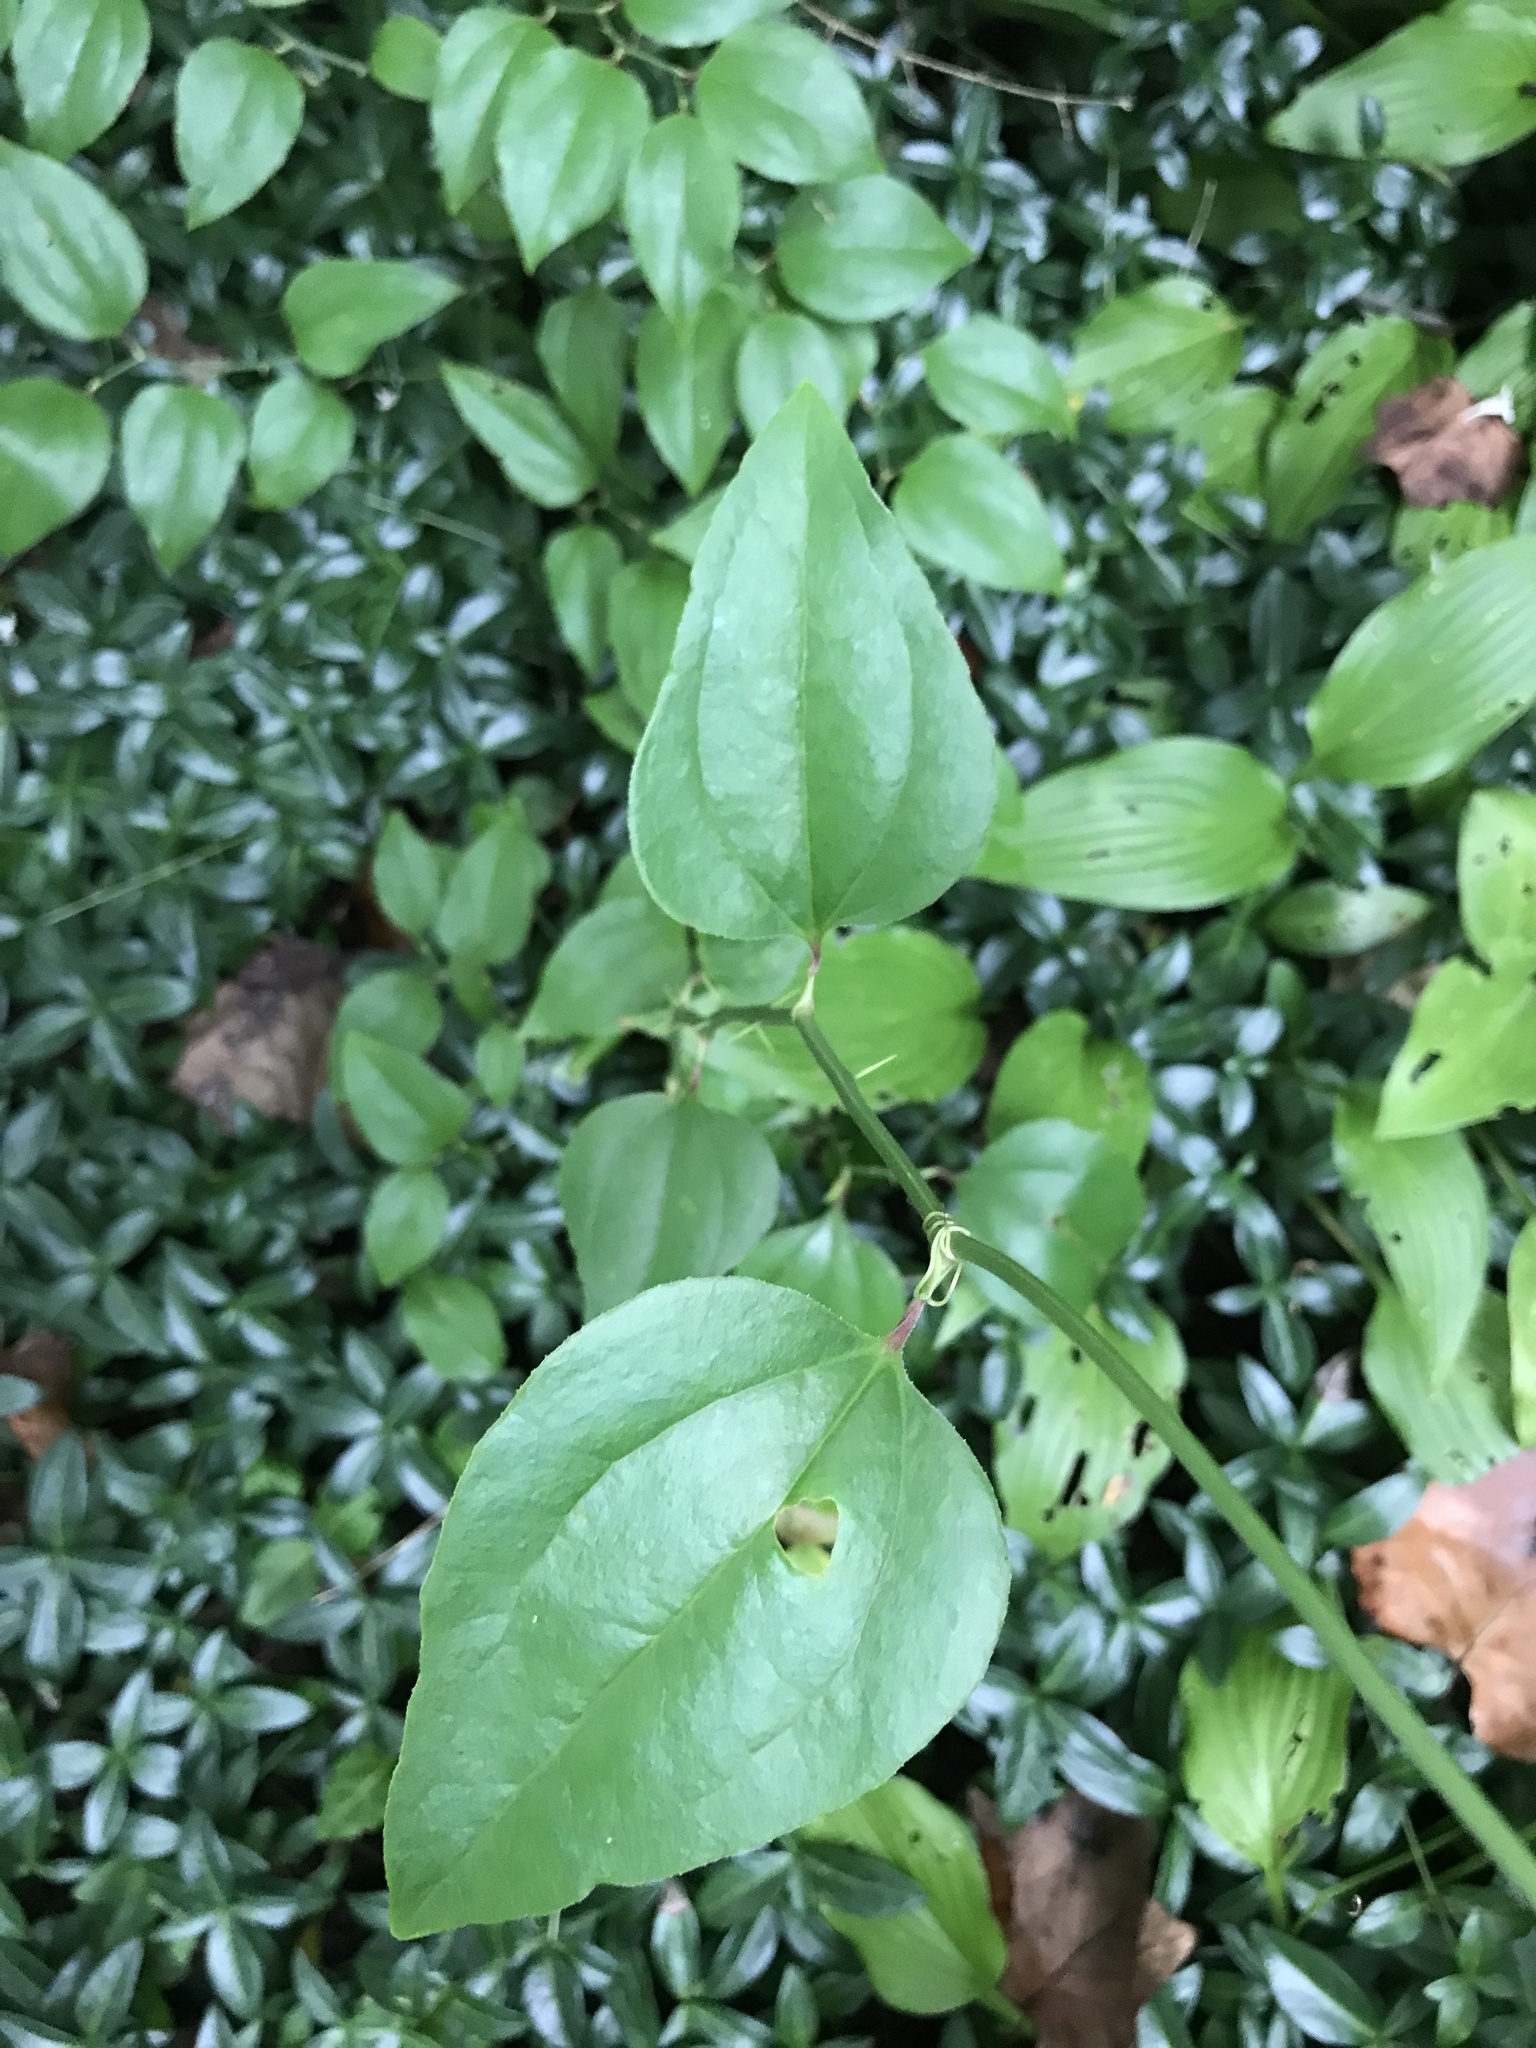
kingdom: Plantae
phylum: Tracheophyta
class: Liliopsida
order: Liliales
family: Smilacaceae
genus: Smilax
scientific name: Smilax rotundifolia
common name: Bullbriar
